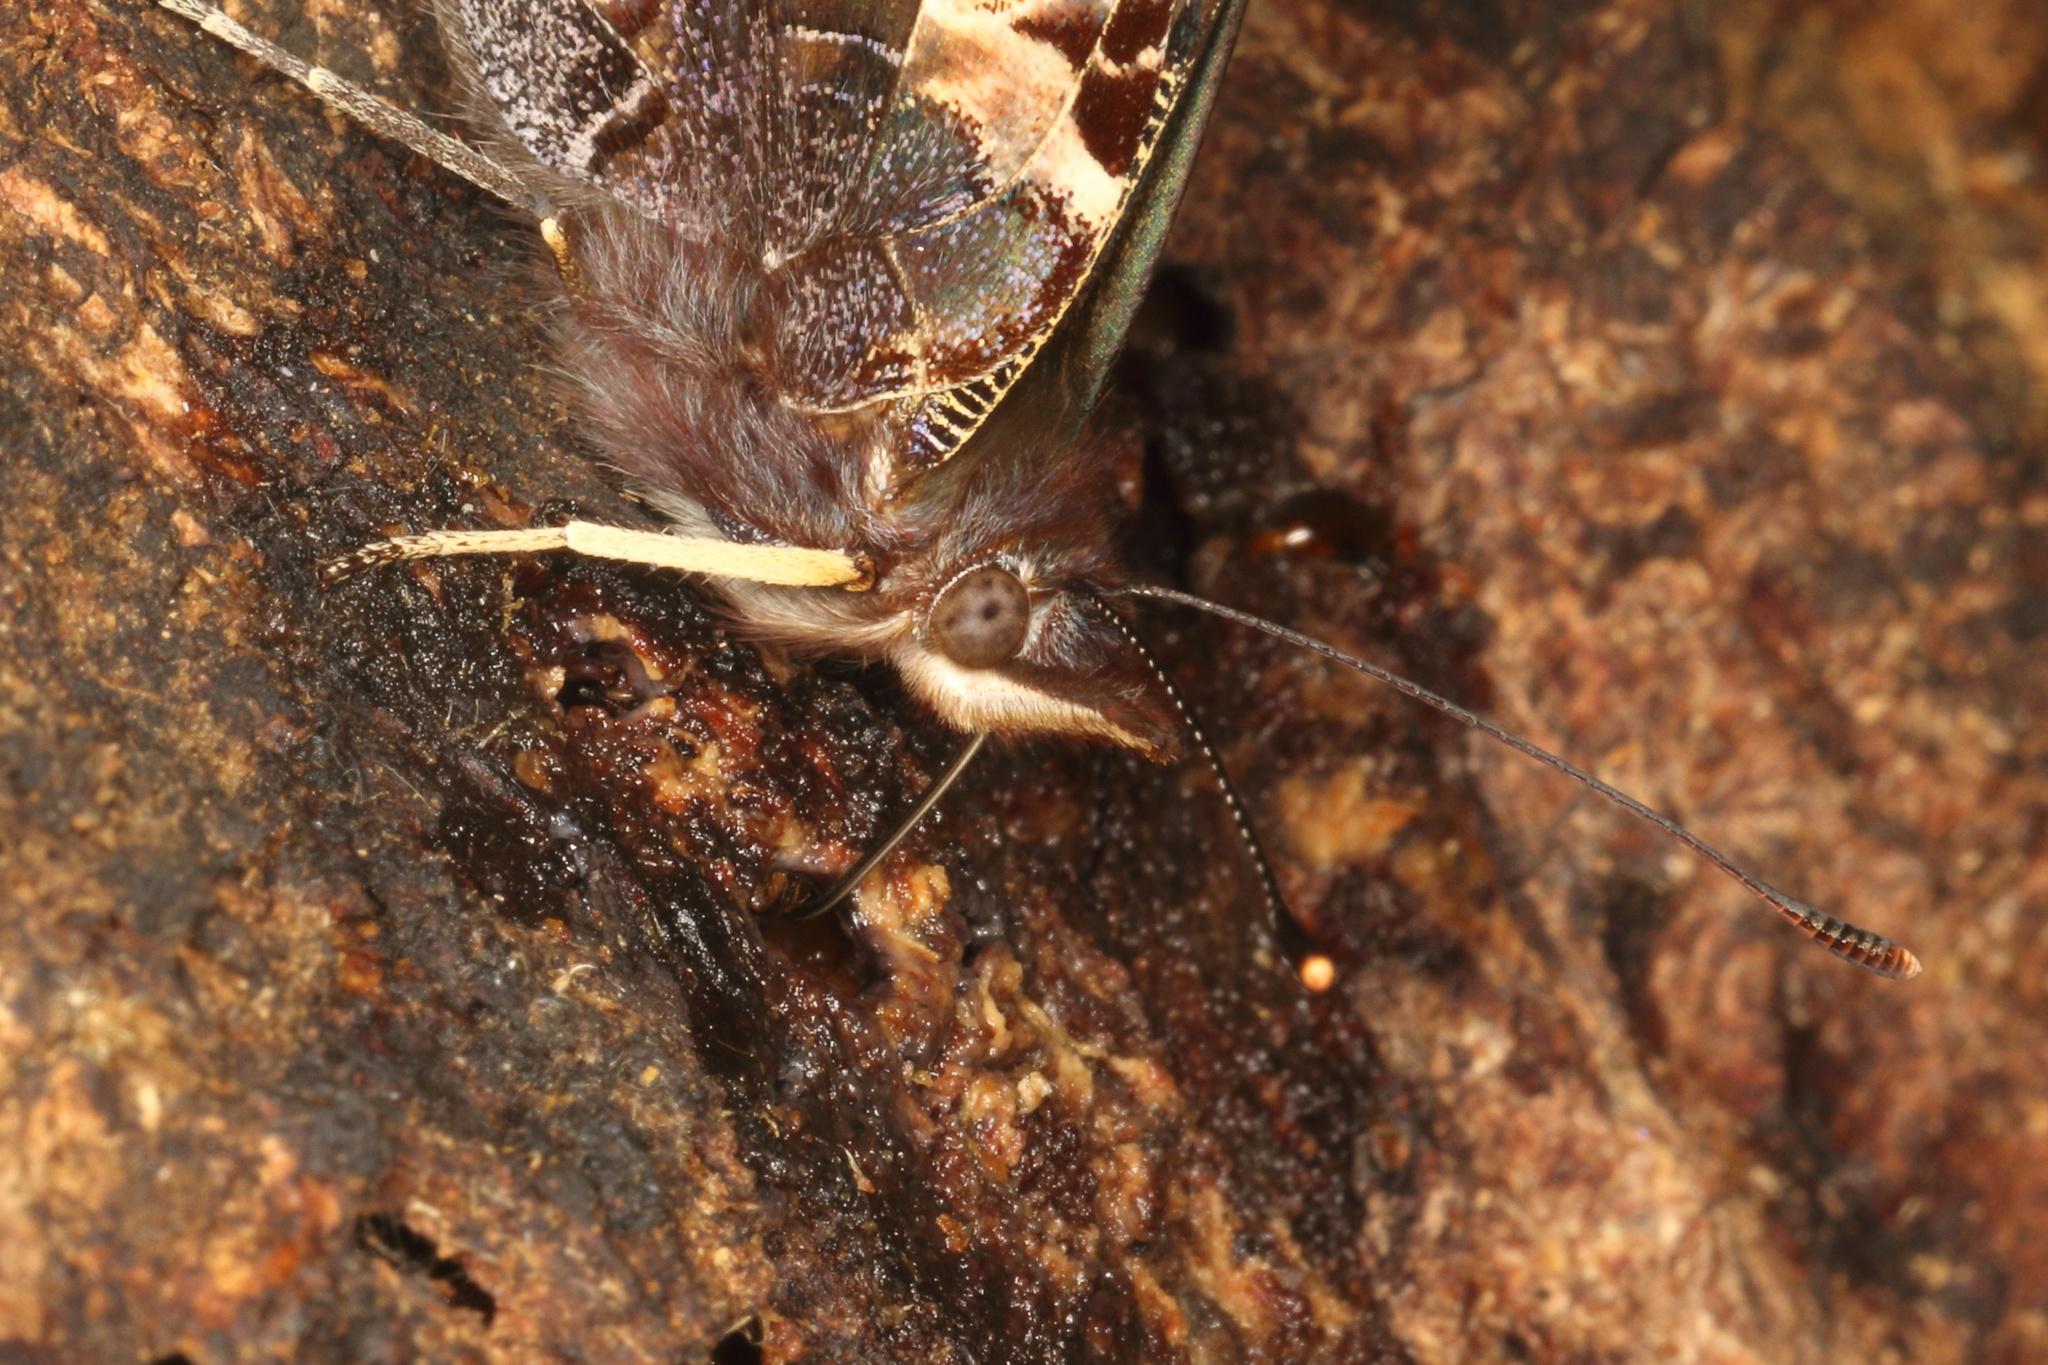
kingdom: Animalia
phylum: Arthropoda
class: Insecta
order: Lepidoptera
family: Nymphalidae
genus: Vanessa
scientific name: Vanessa gonerilla
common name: New zealand red admiral
